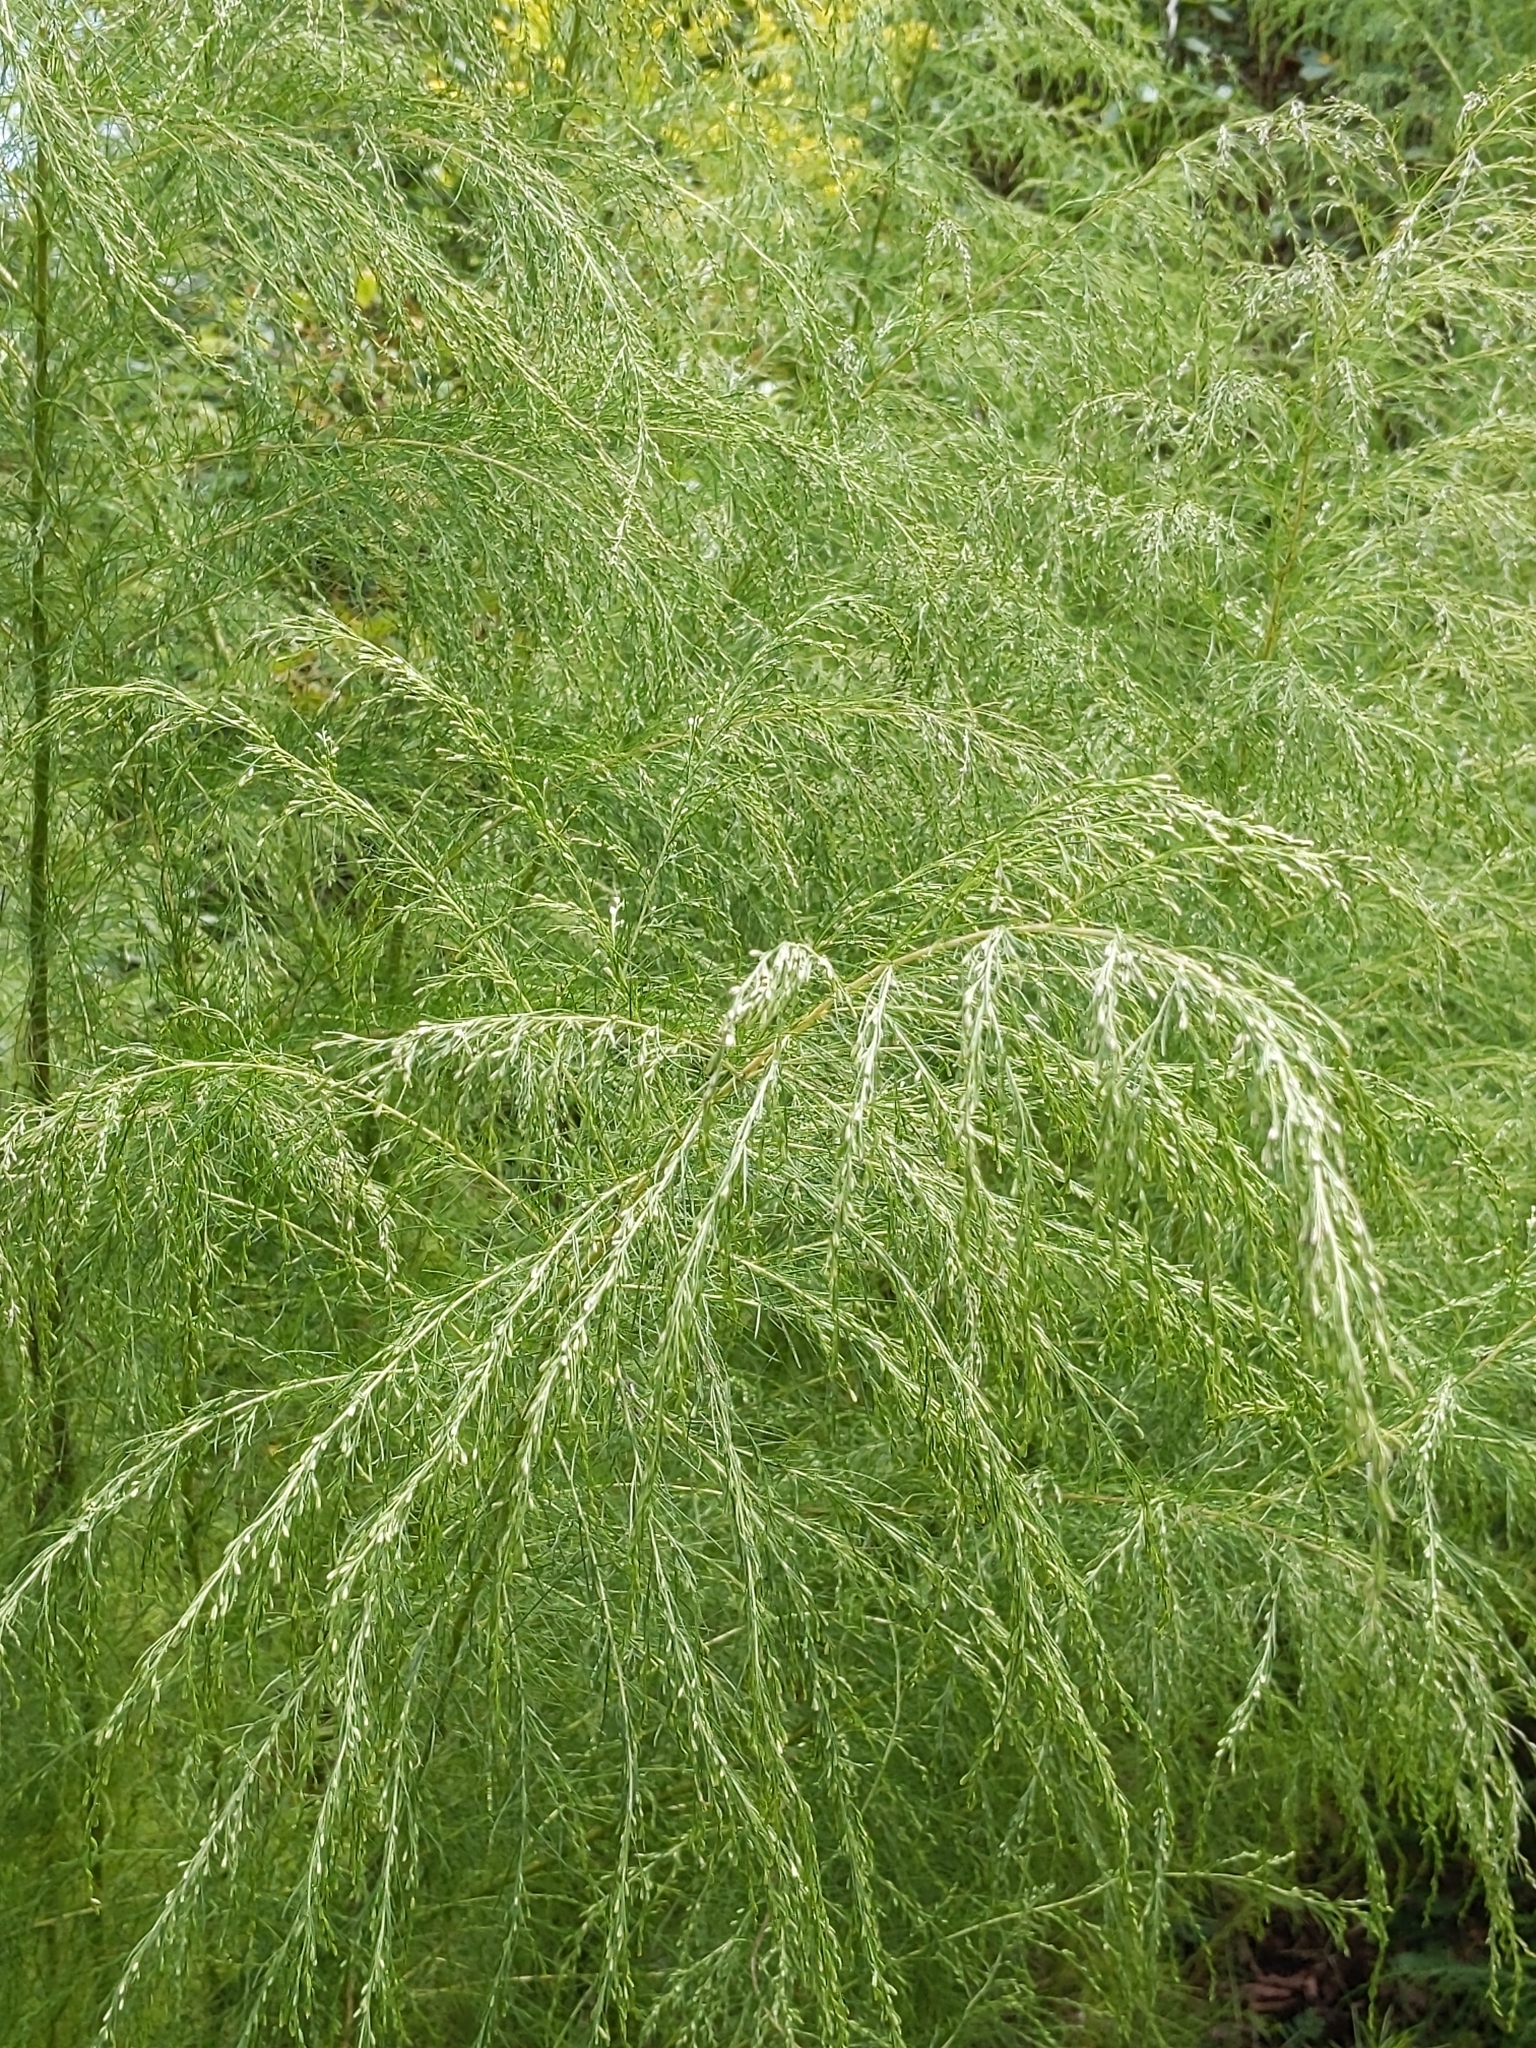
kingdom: Plantae
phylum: Tracheophyta
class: Magnoliopsida
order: Asterales
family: Asteraceae
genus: Eupatorium
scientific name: Eupatorium capillifolium
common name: Dog-fennel
